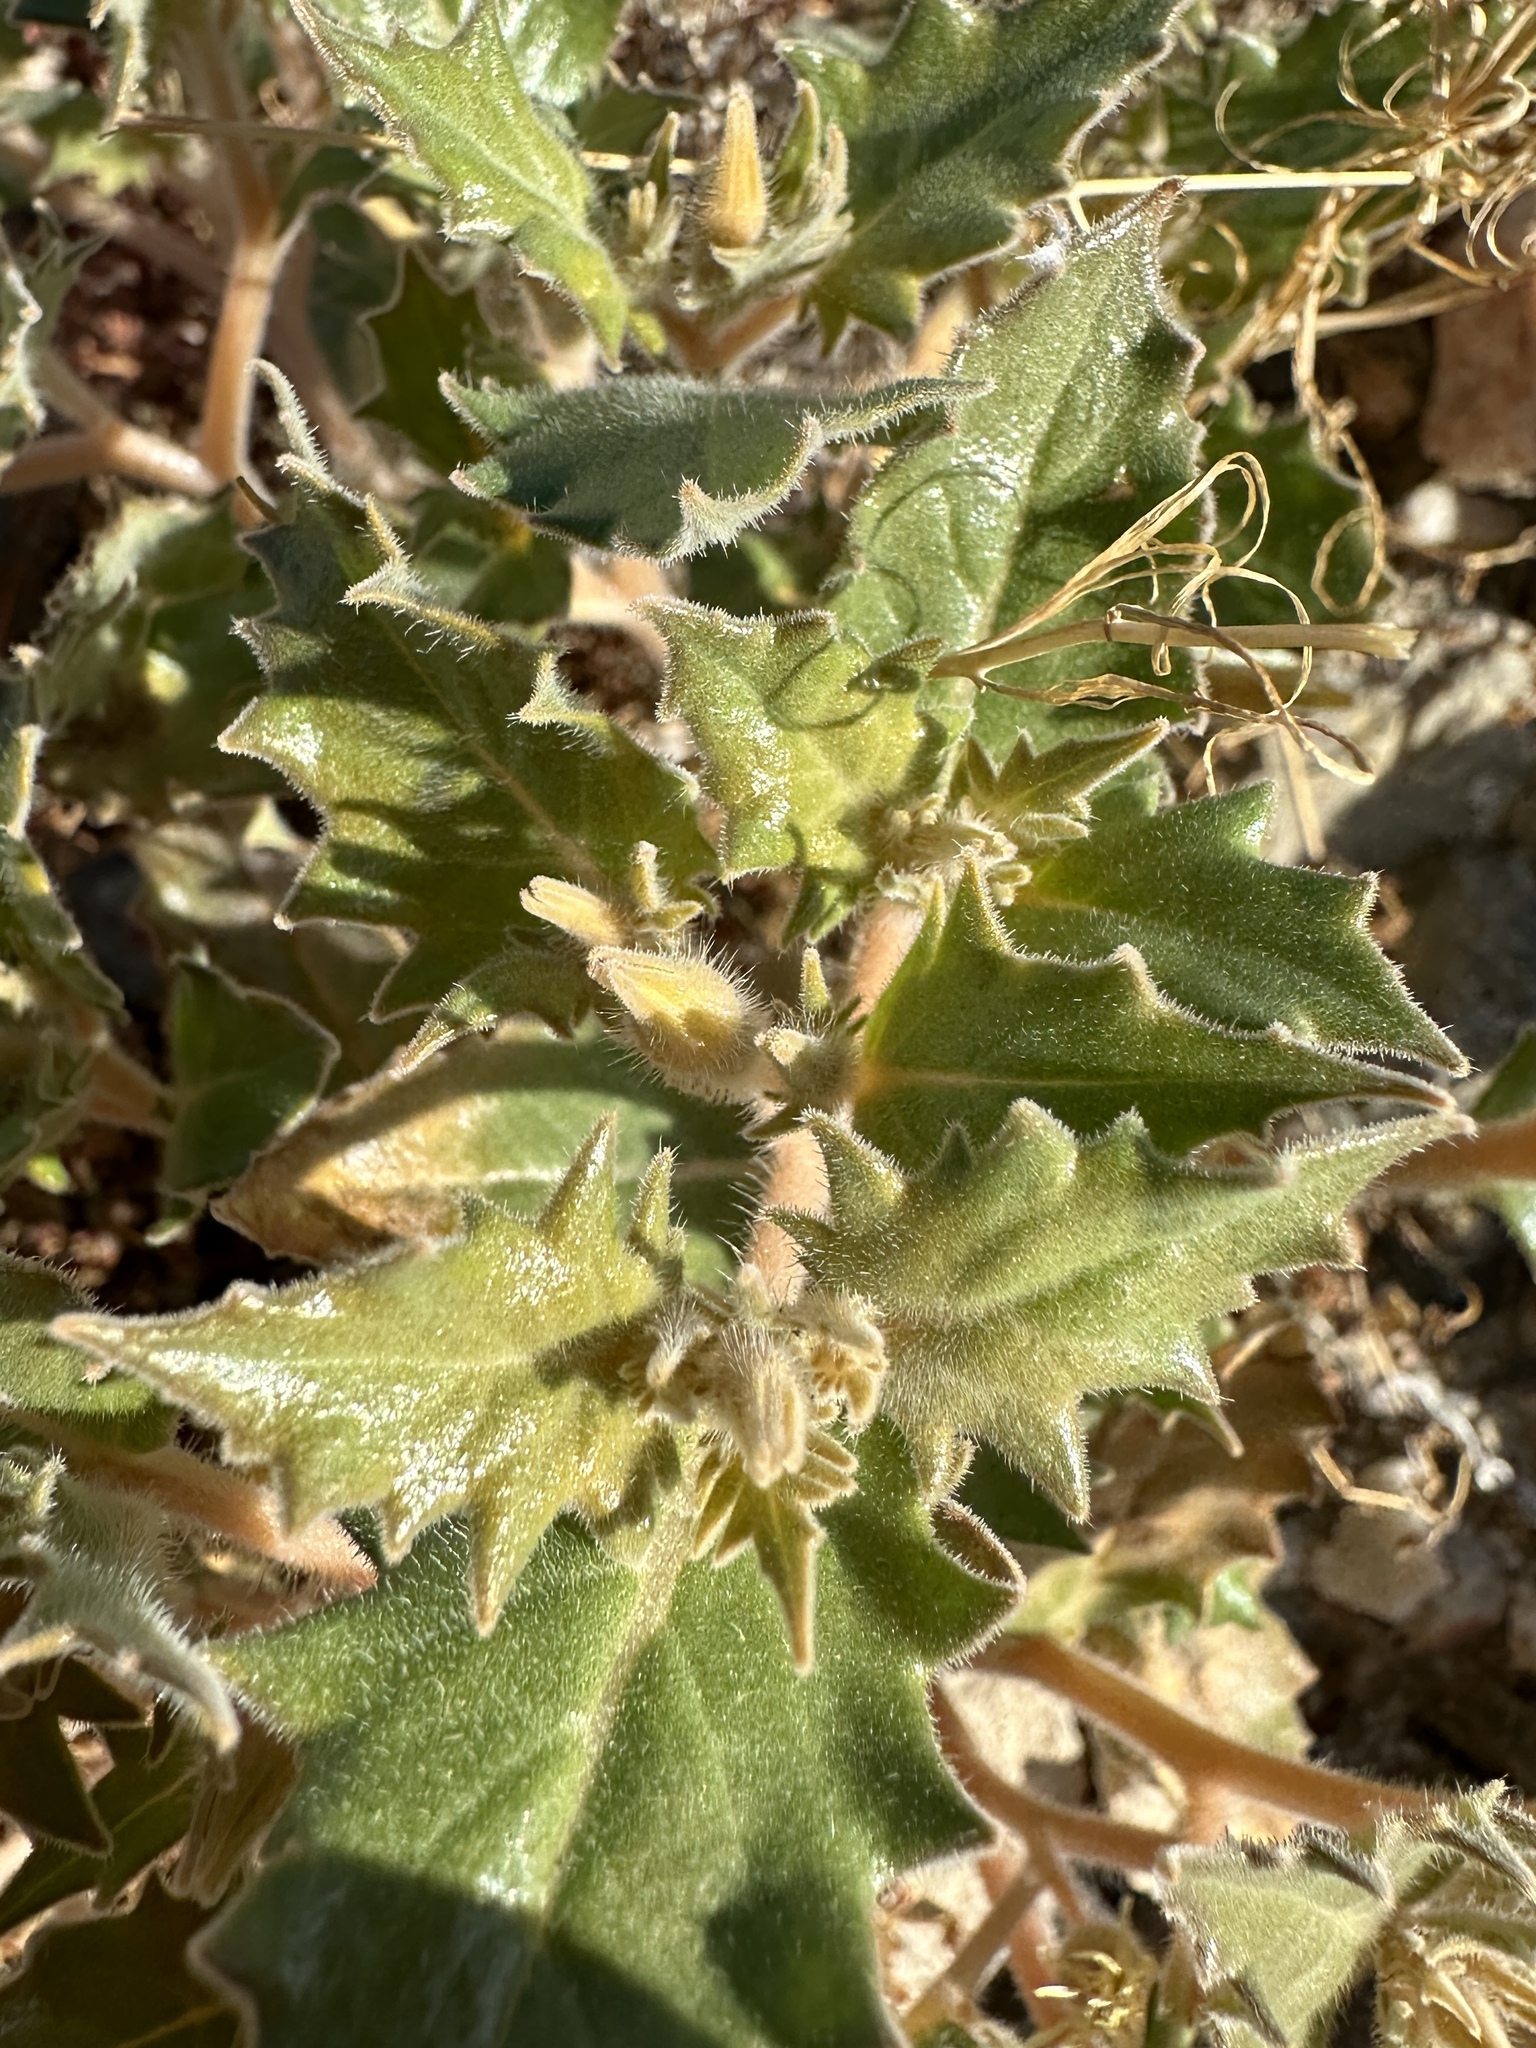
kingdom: Plantae
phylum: Tracheophyta
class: Magnoliopsida
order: Cornales
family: Loasaceae
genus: Mentzelia
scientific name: Mentzelia reflexa
